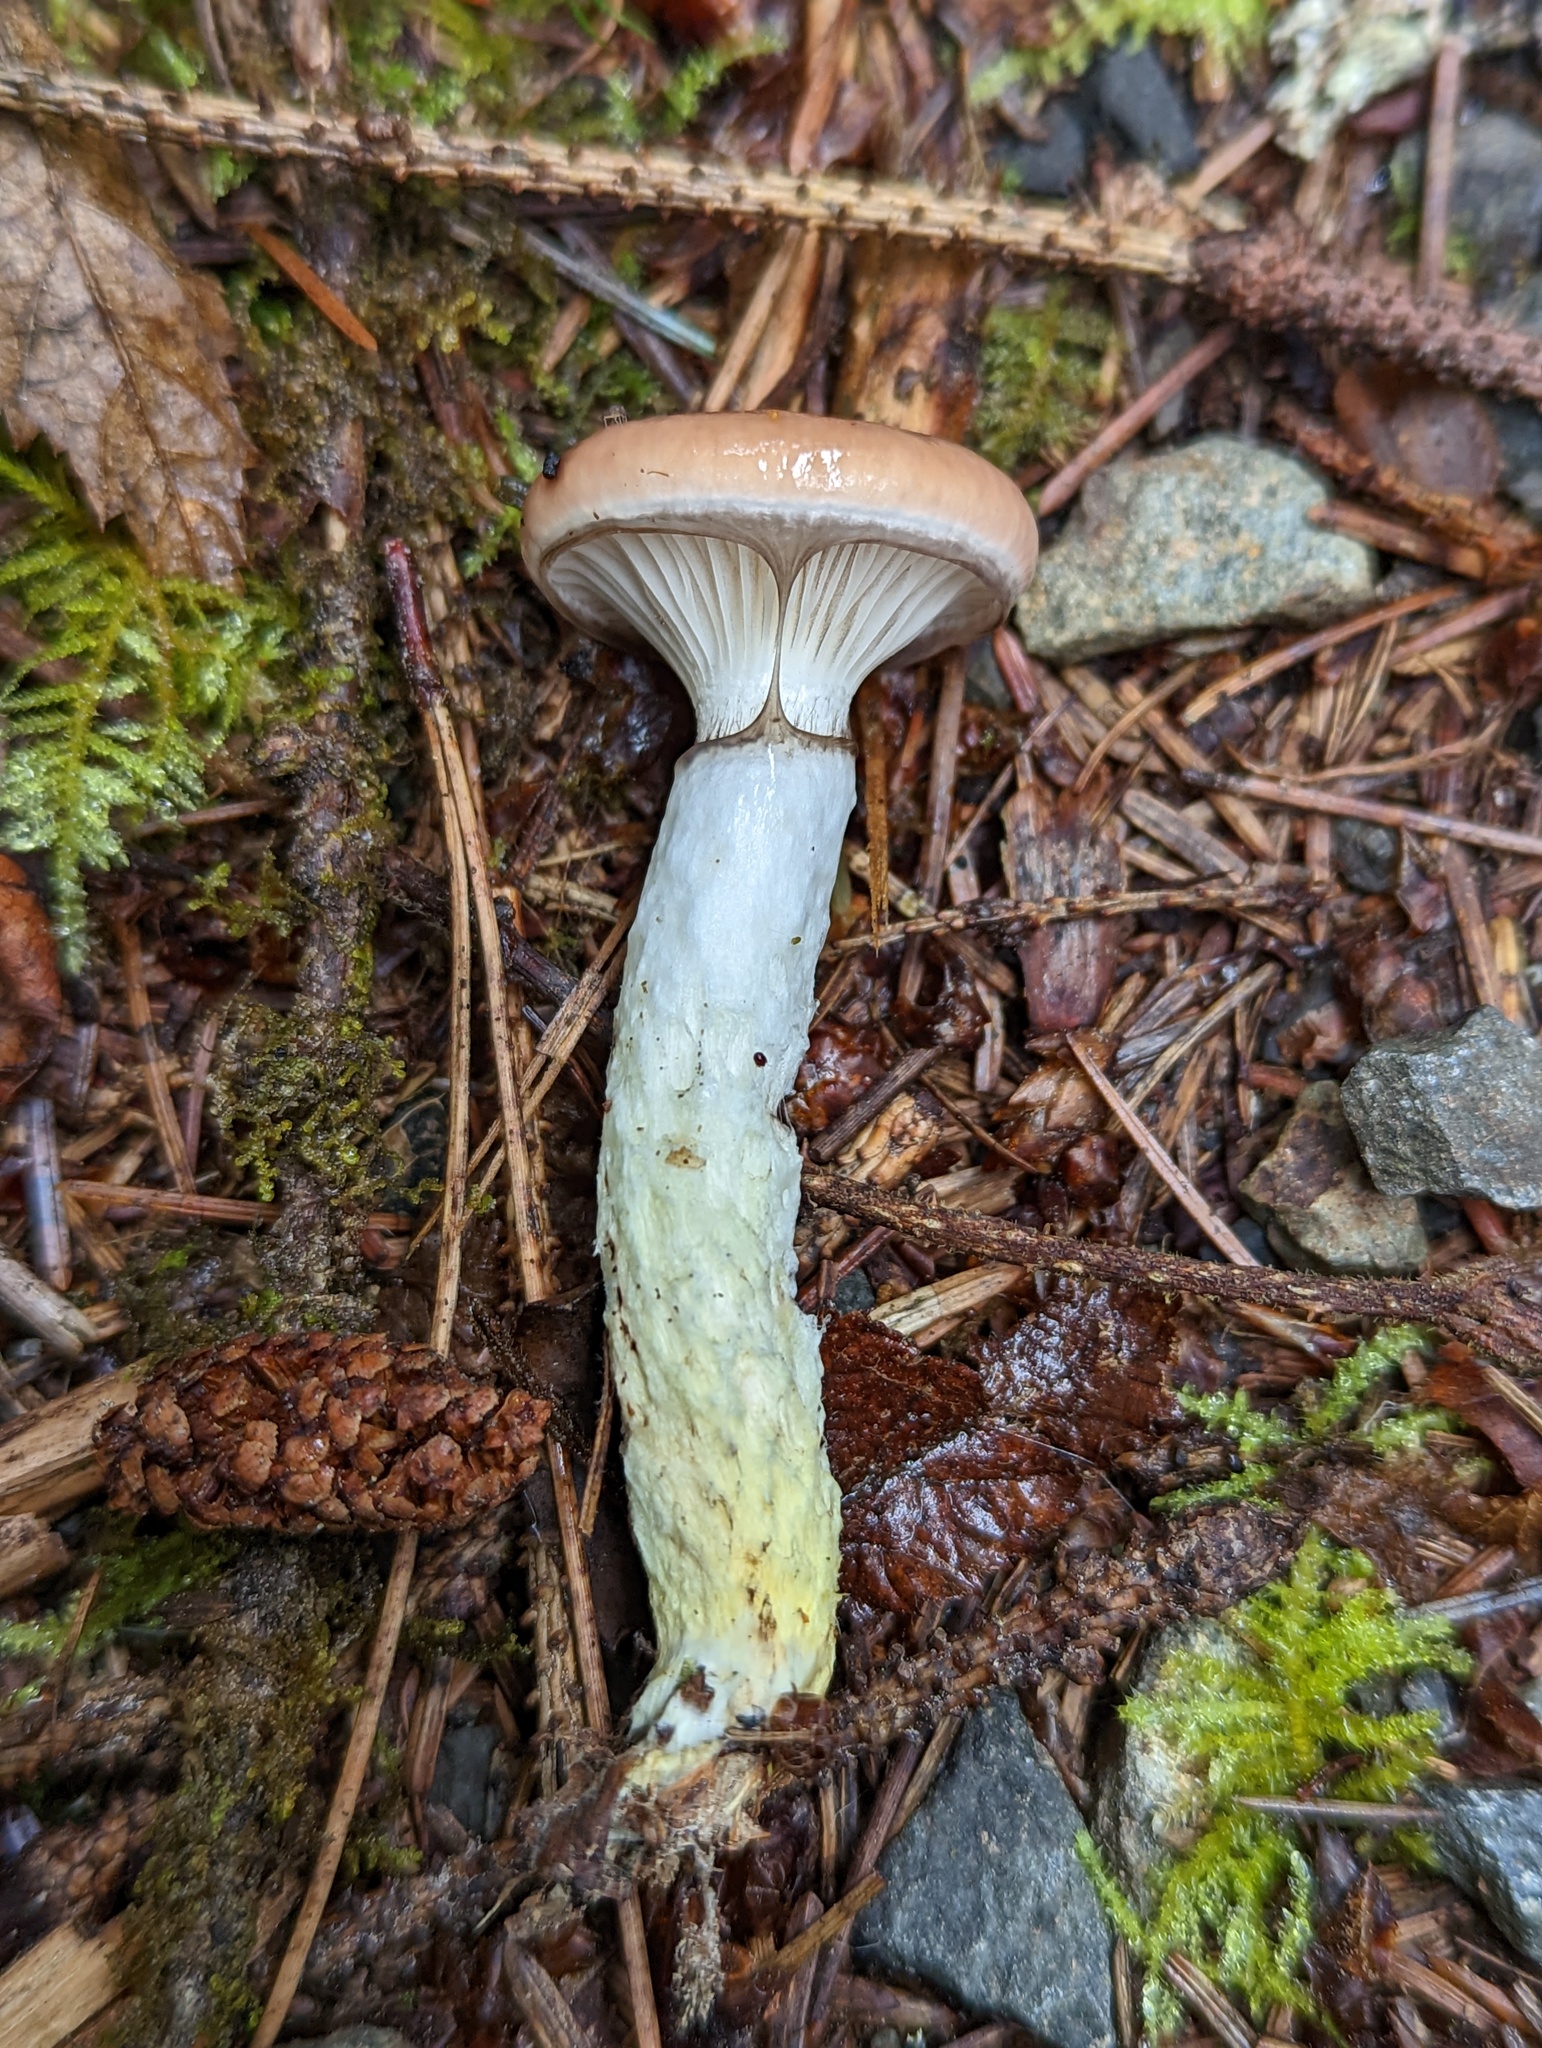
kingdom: Fungi
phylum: Basidiomycota
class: Agaricomycetes
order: Boletales
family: Gomphidiaceae
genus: Gomphidius
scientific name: Gomphidius subroseus
